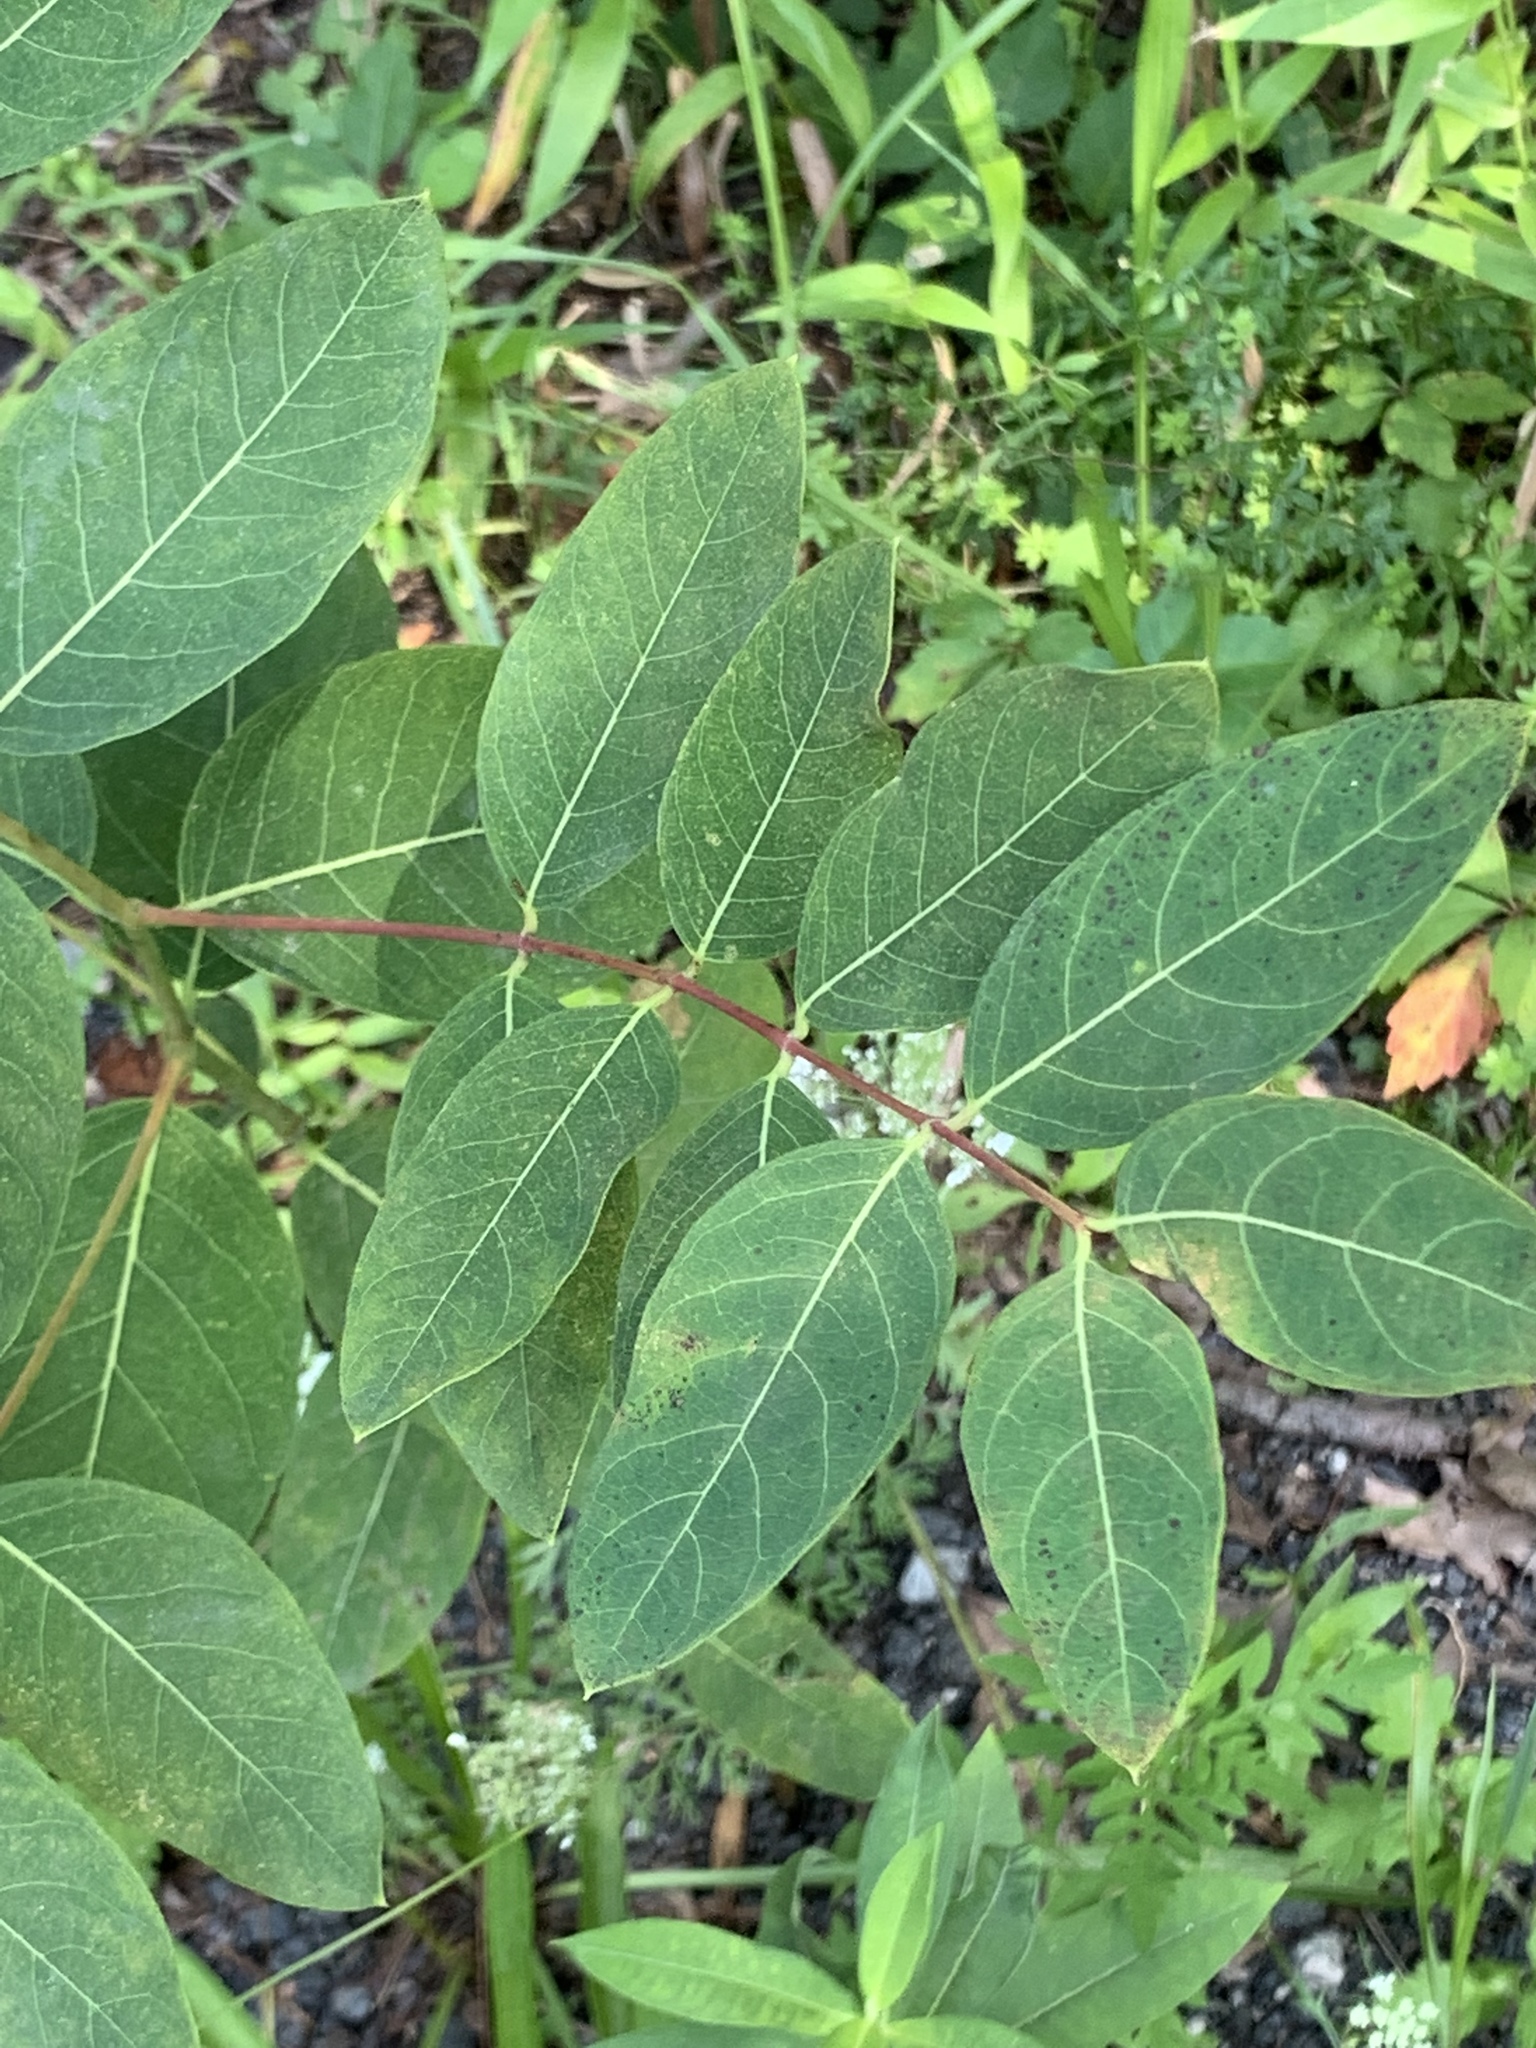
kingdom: Plantae
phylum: Tracheophyta
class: Magnoliopsida
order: Gentianales
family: Apocynaceae
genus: Apocynum
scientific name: Apocynum cannabinum
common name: Hemp dogbane
